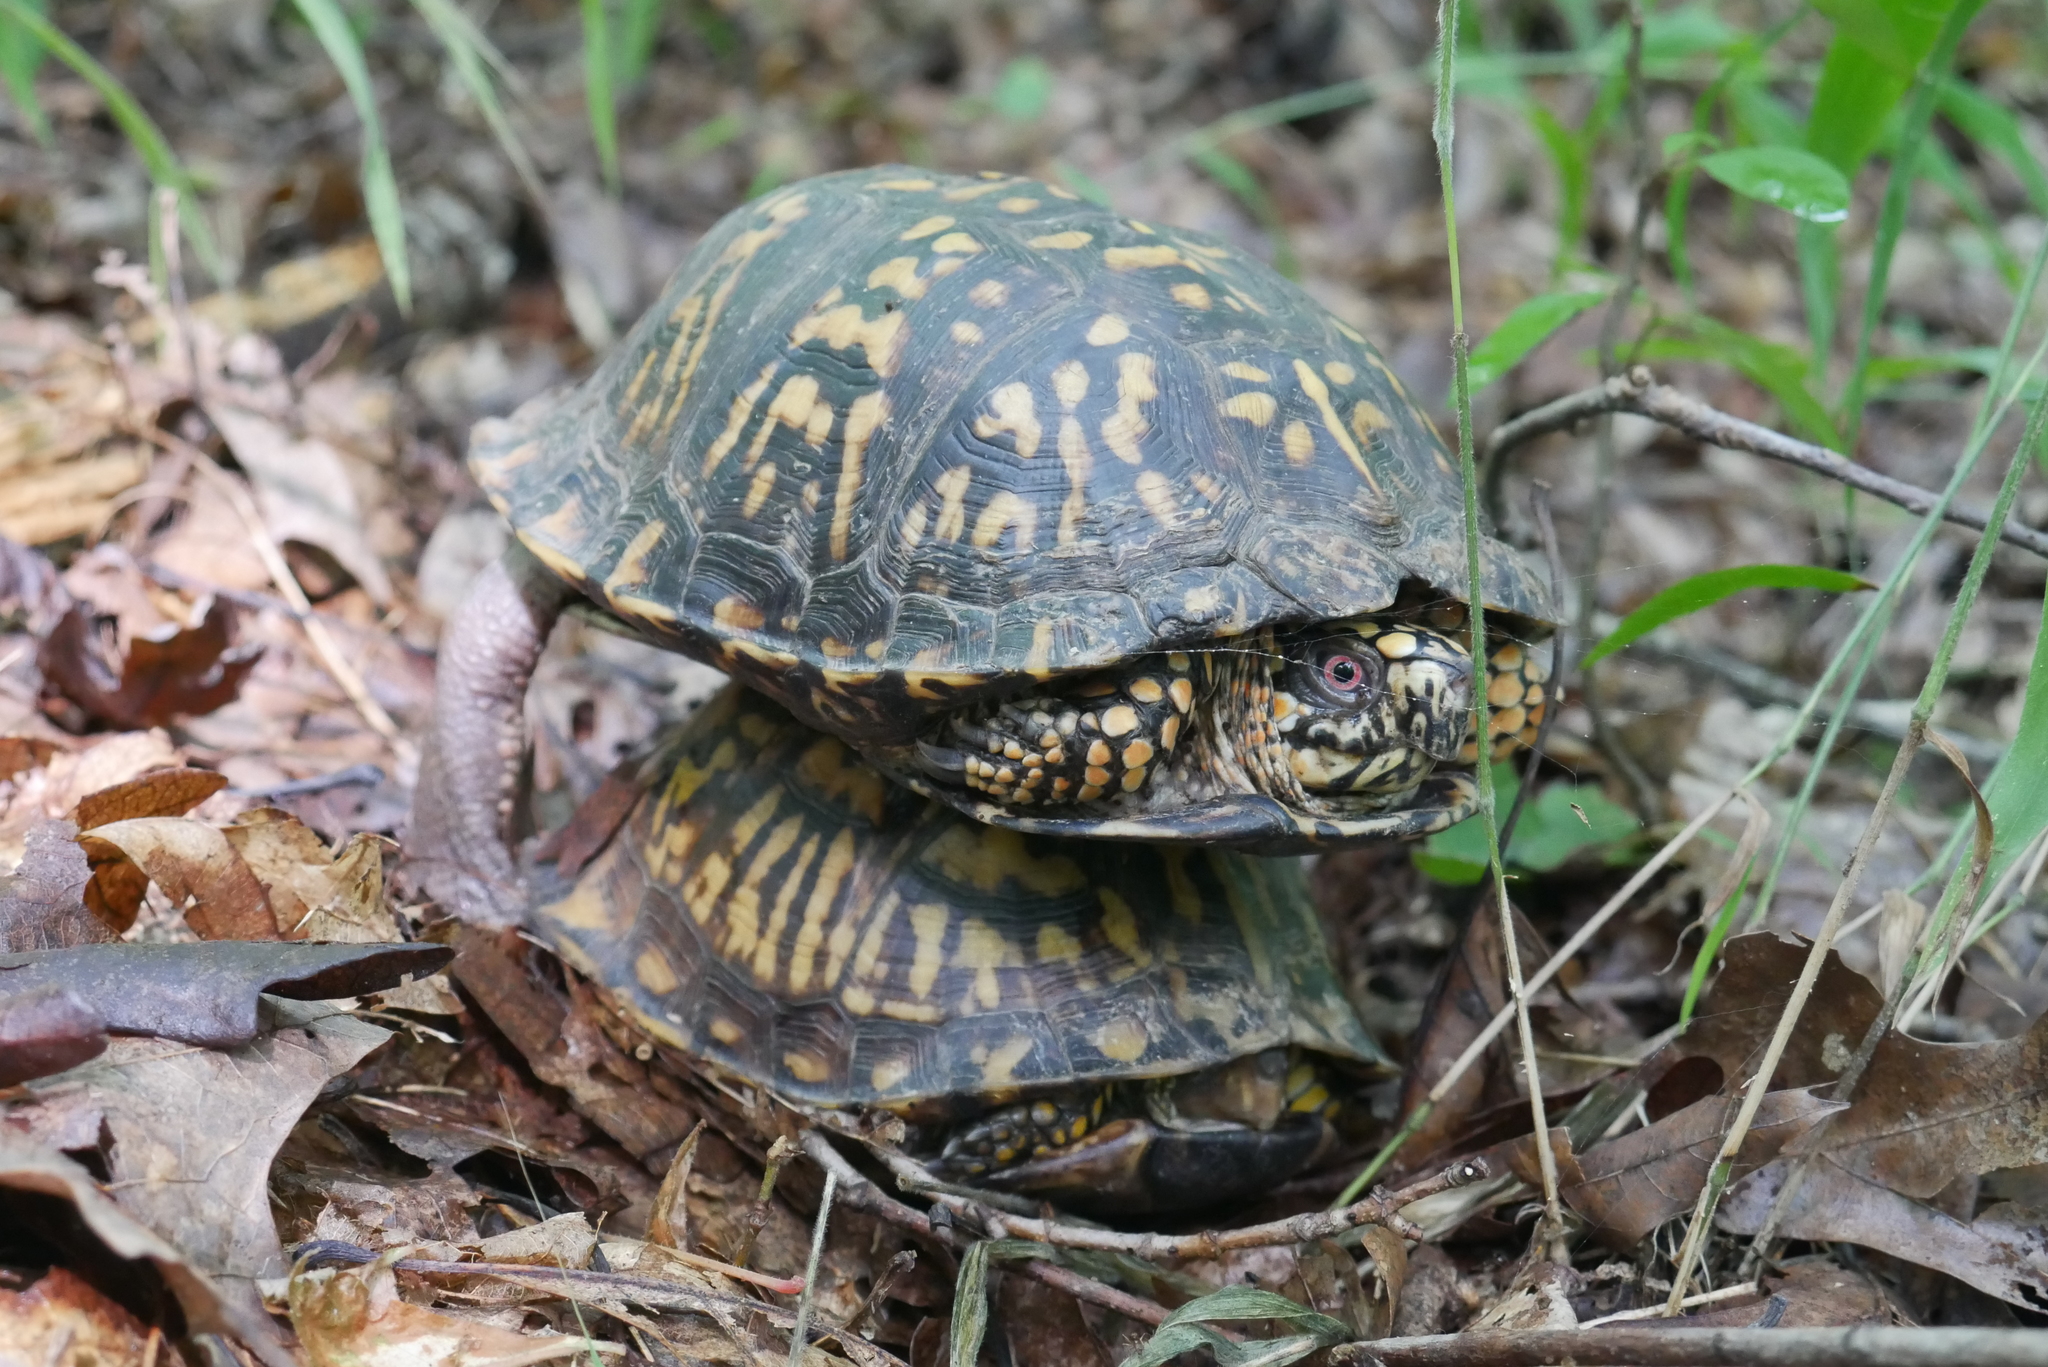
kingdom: Animalia
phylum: Chordata
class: Testudines
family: Emydidae
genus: Terrapene
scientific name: Terrapene carolina
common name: Common box turtle
